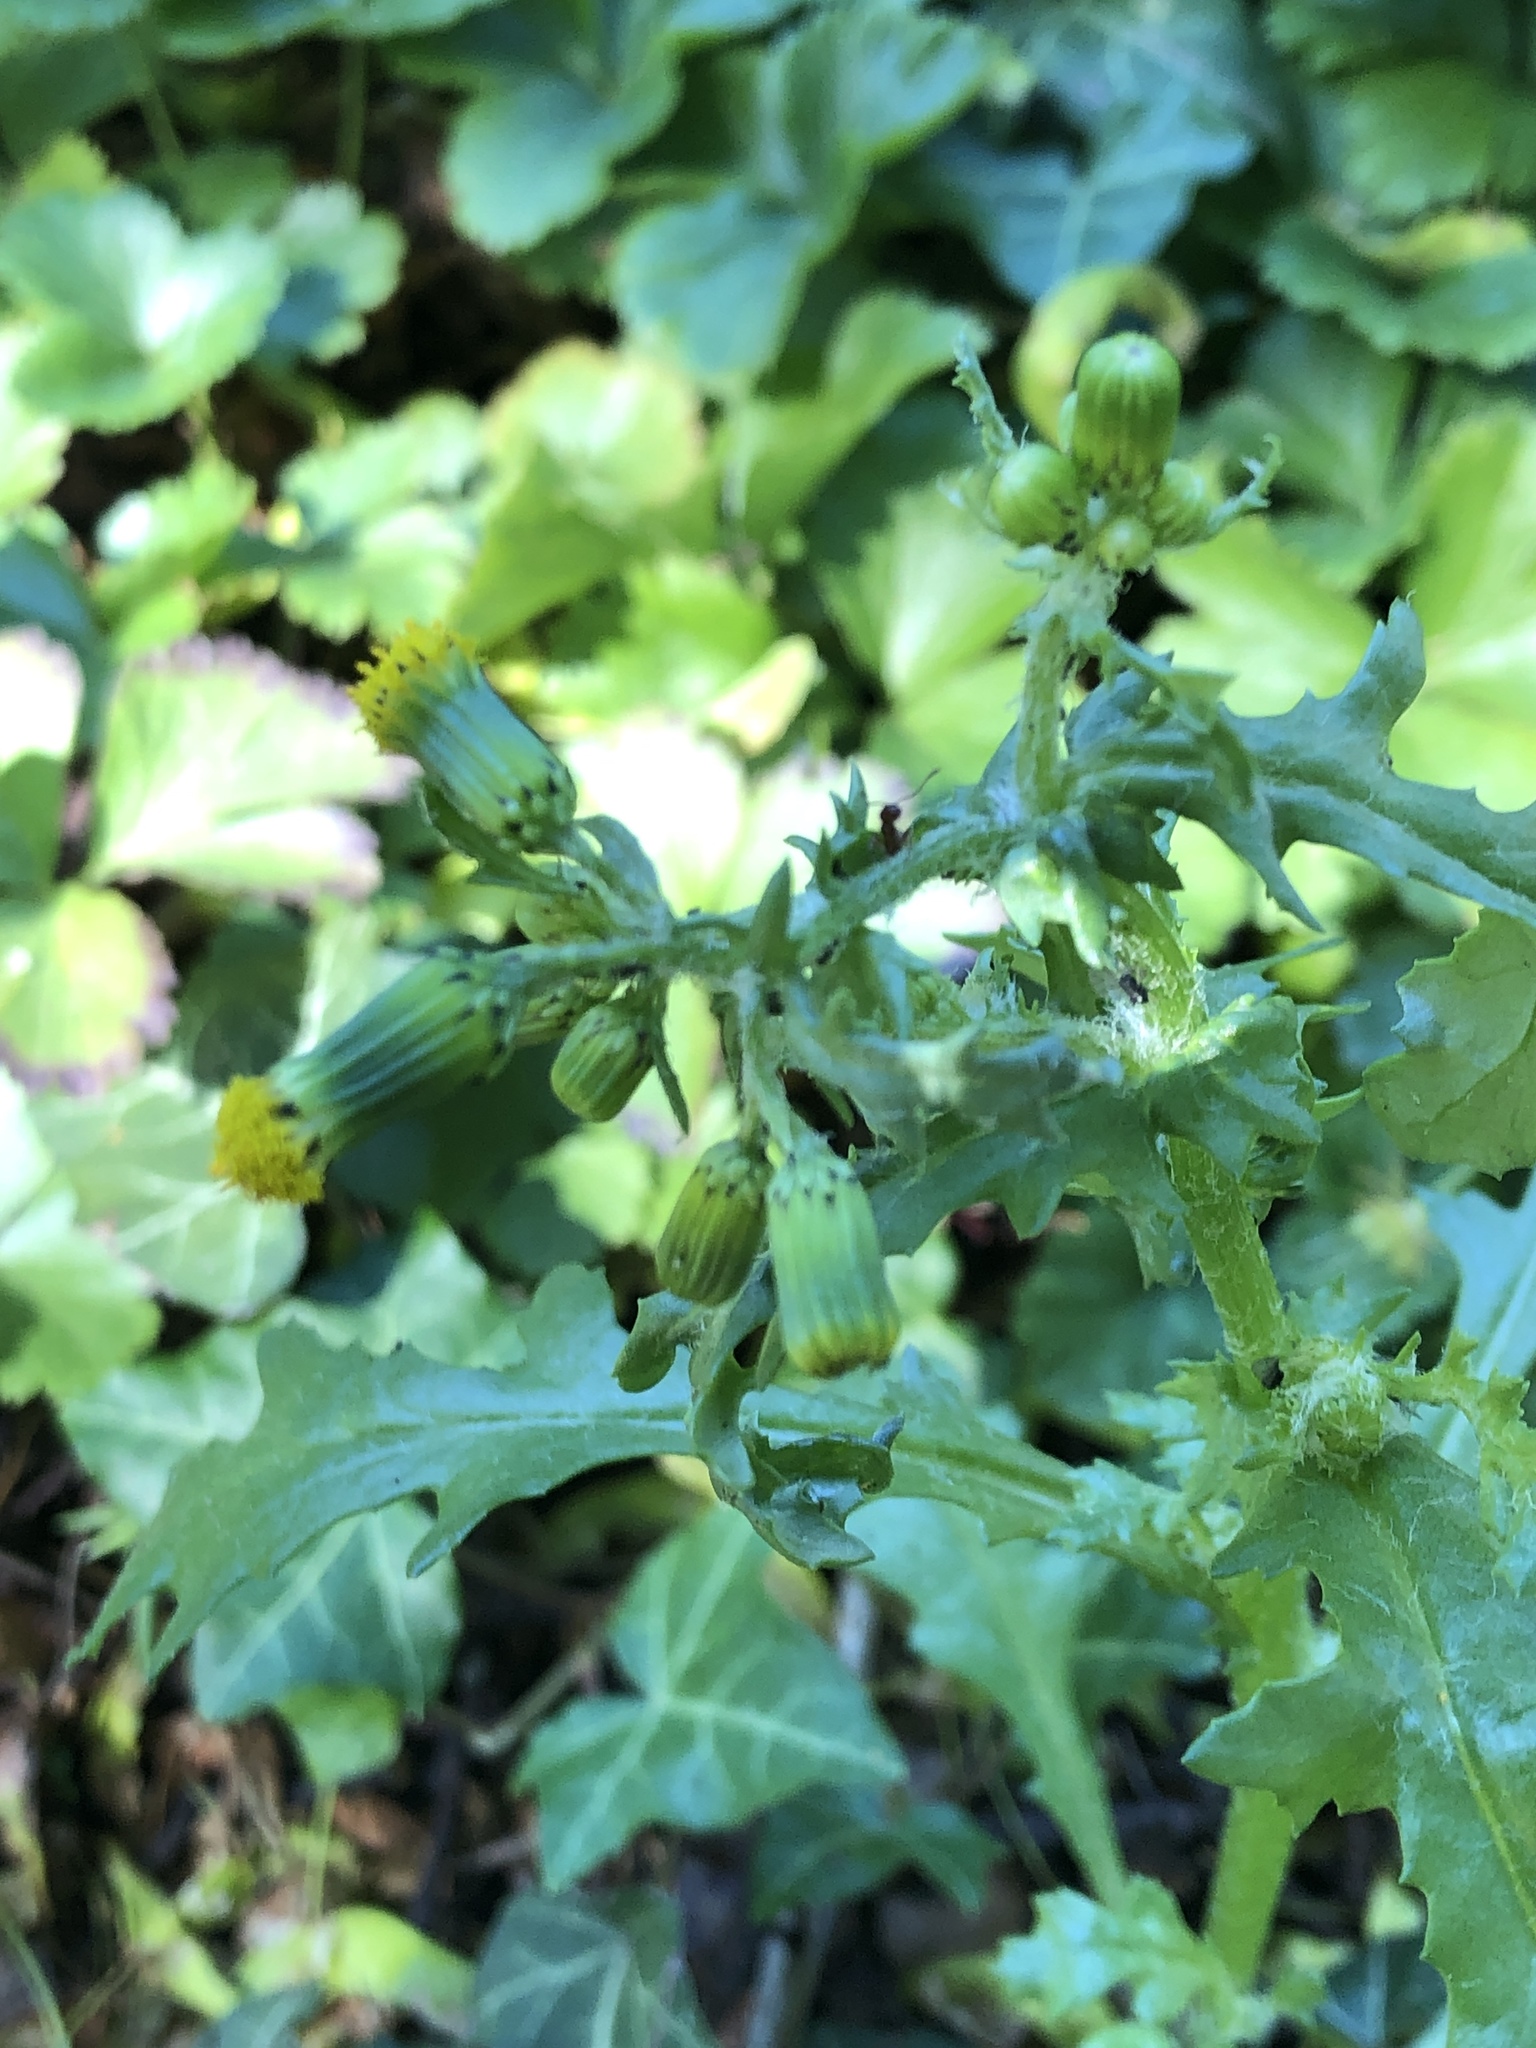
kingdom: Plantae
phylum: Tracheophyta
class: Magnoliopsida
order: Asterales
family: Asteraceae
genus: Senecio
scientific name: Senecio vulgaris
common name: Old-man-in-the-spring
